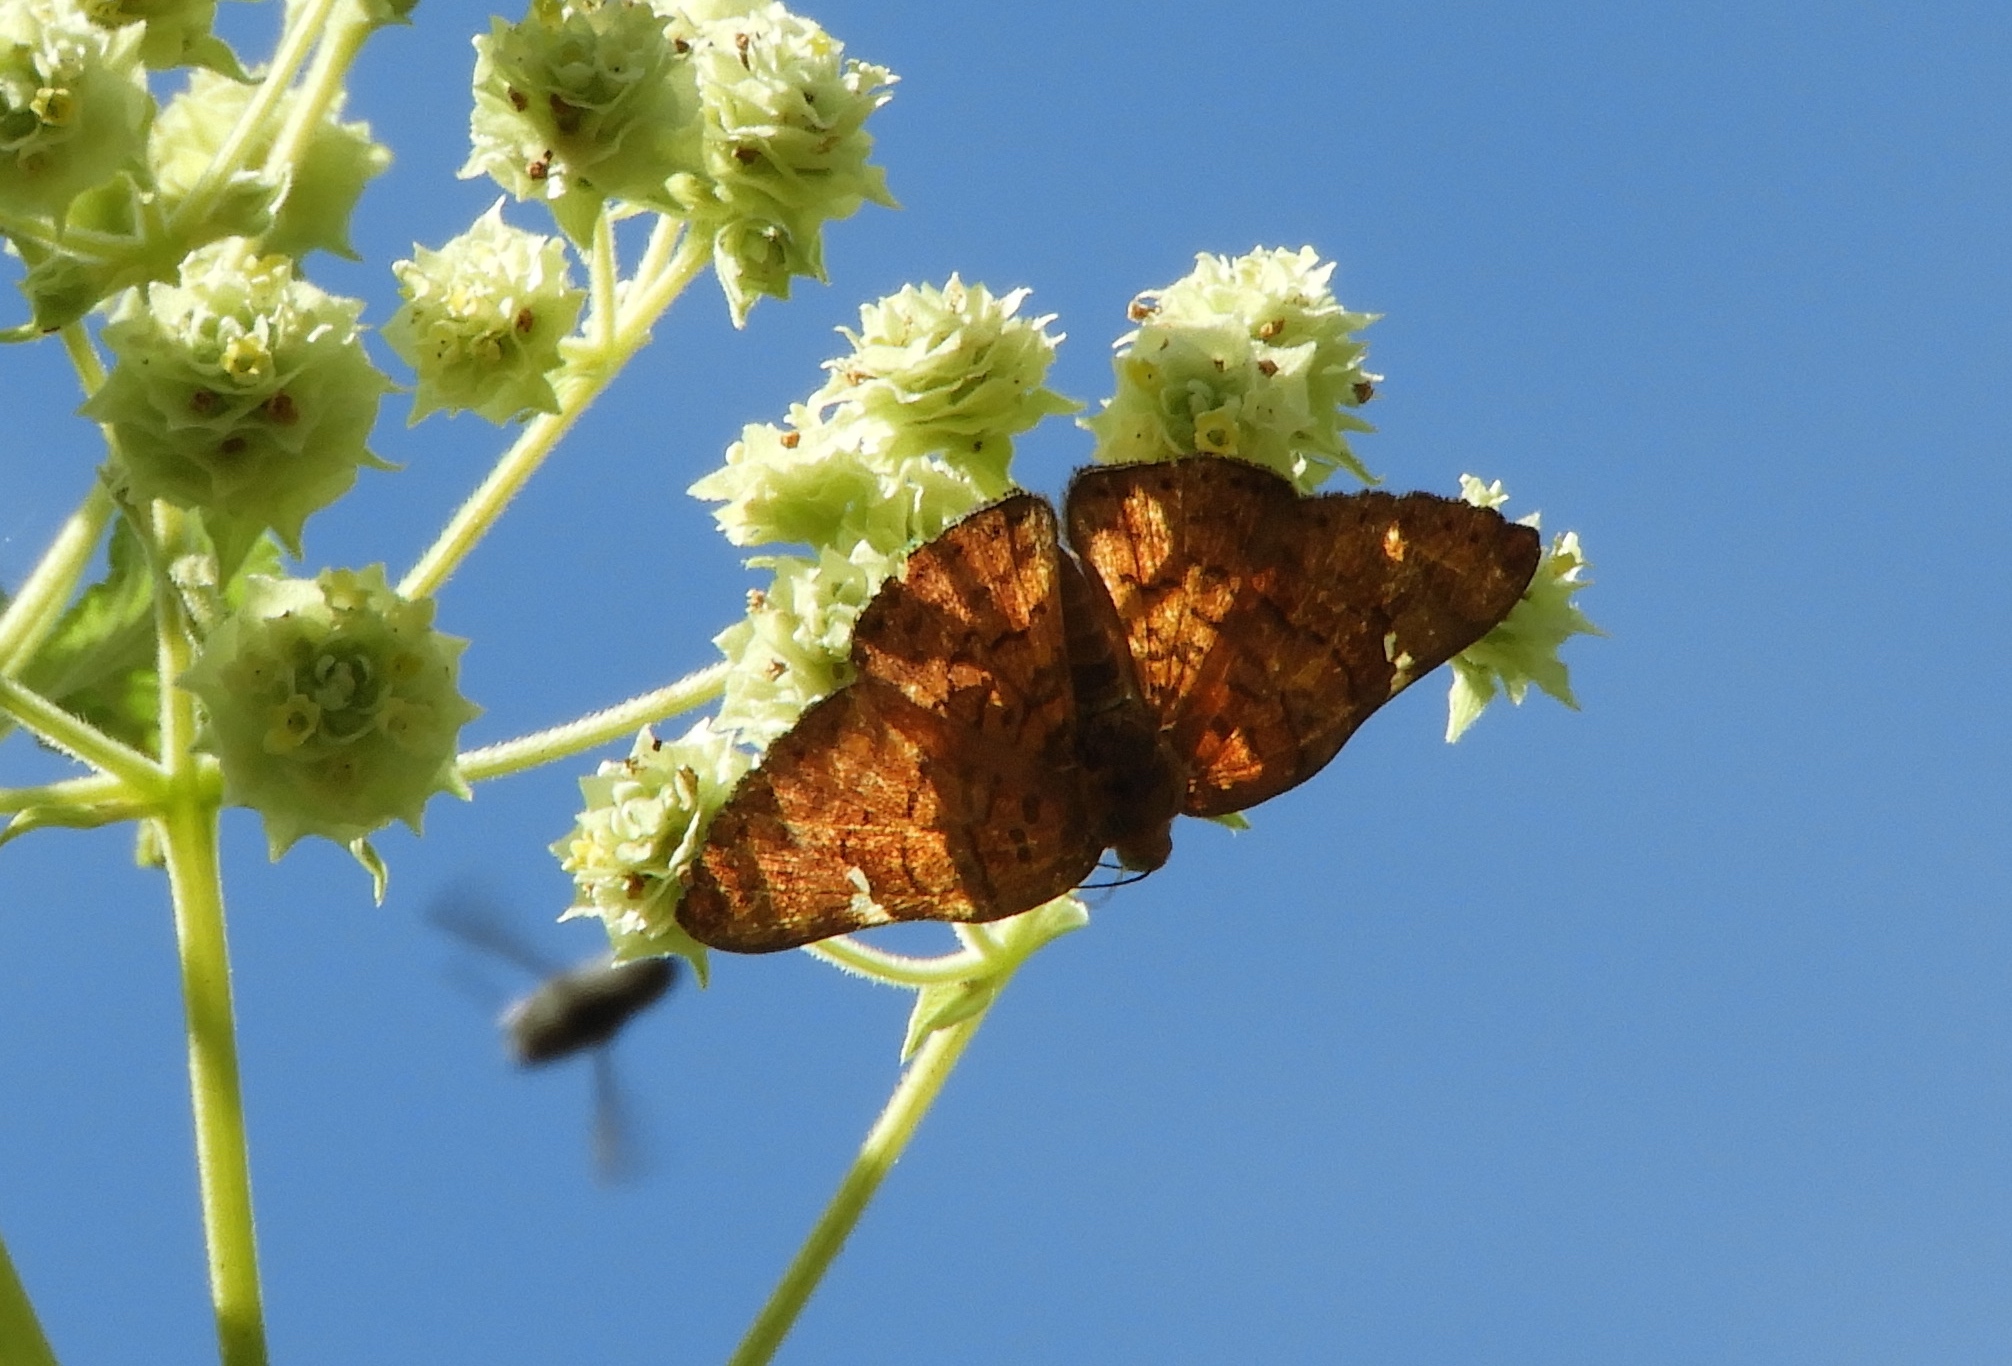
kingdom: Animalia
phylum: Arthropoda
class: Insecta
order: Lepidoptera
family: Riodinidae
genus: Curvie
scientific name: Curvie emesia
